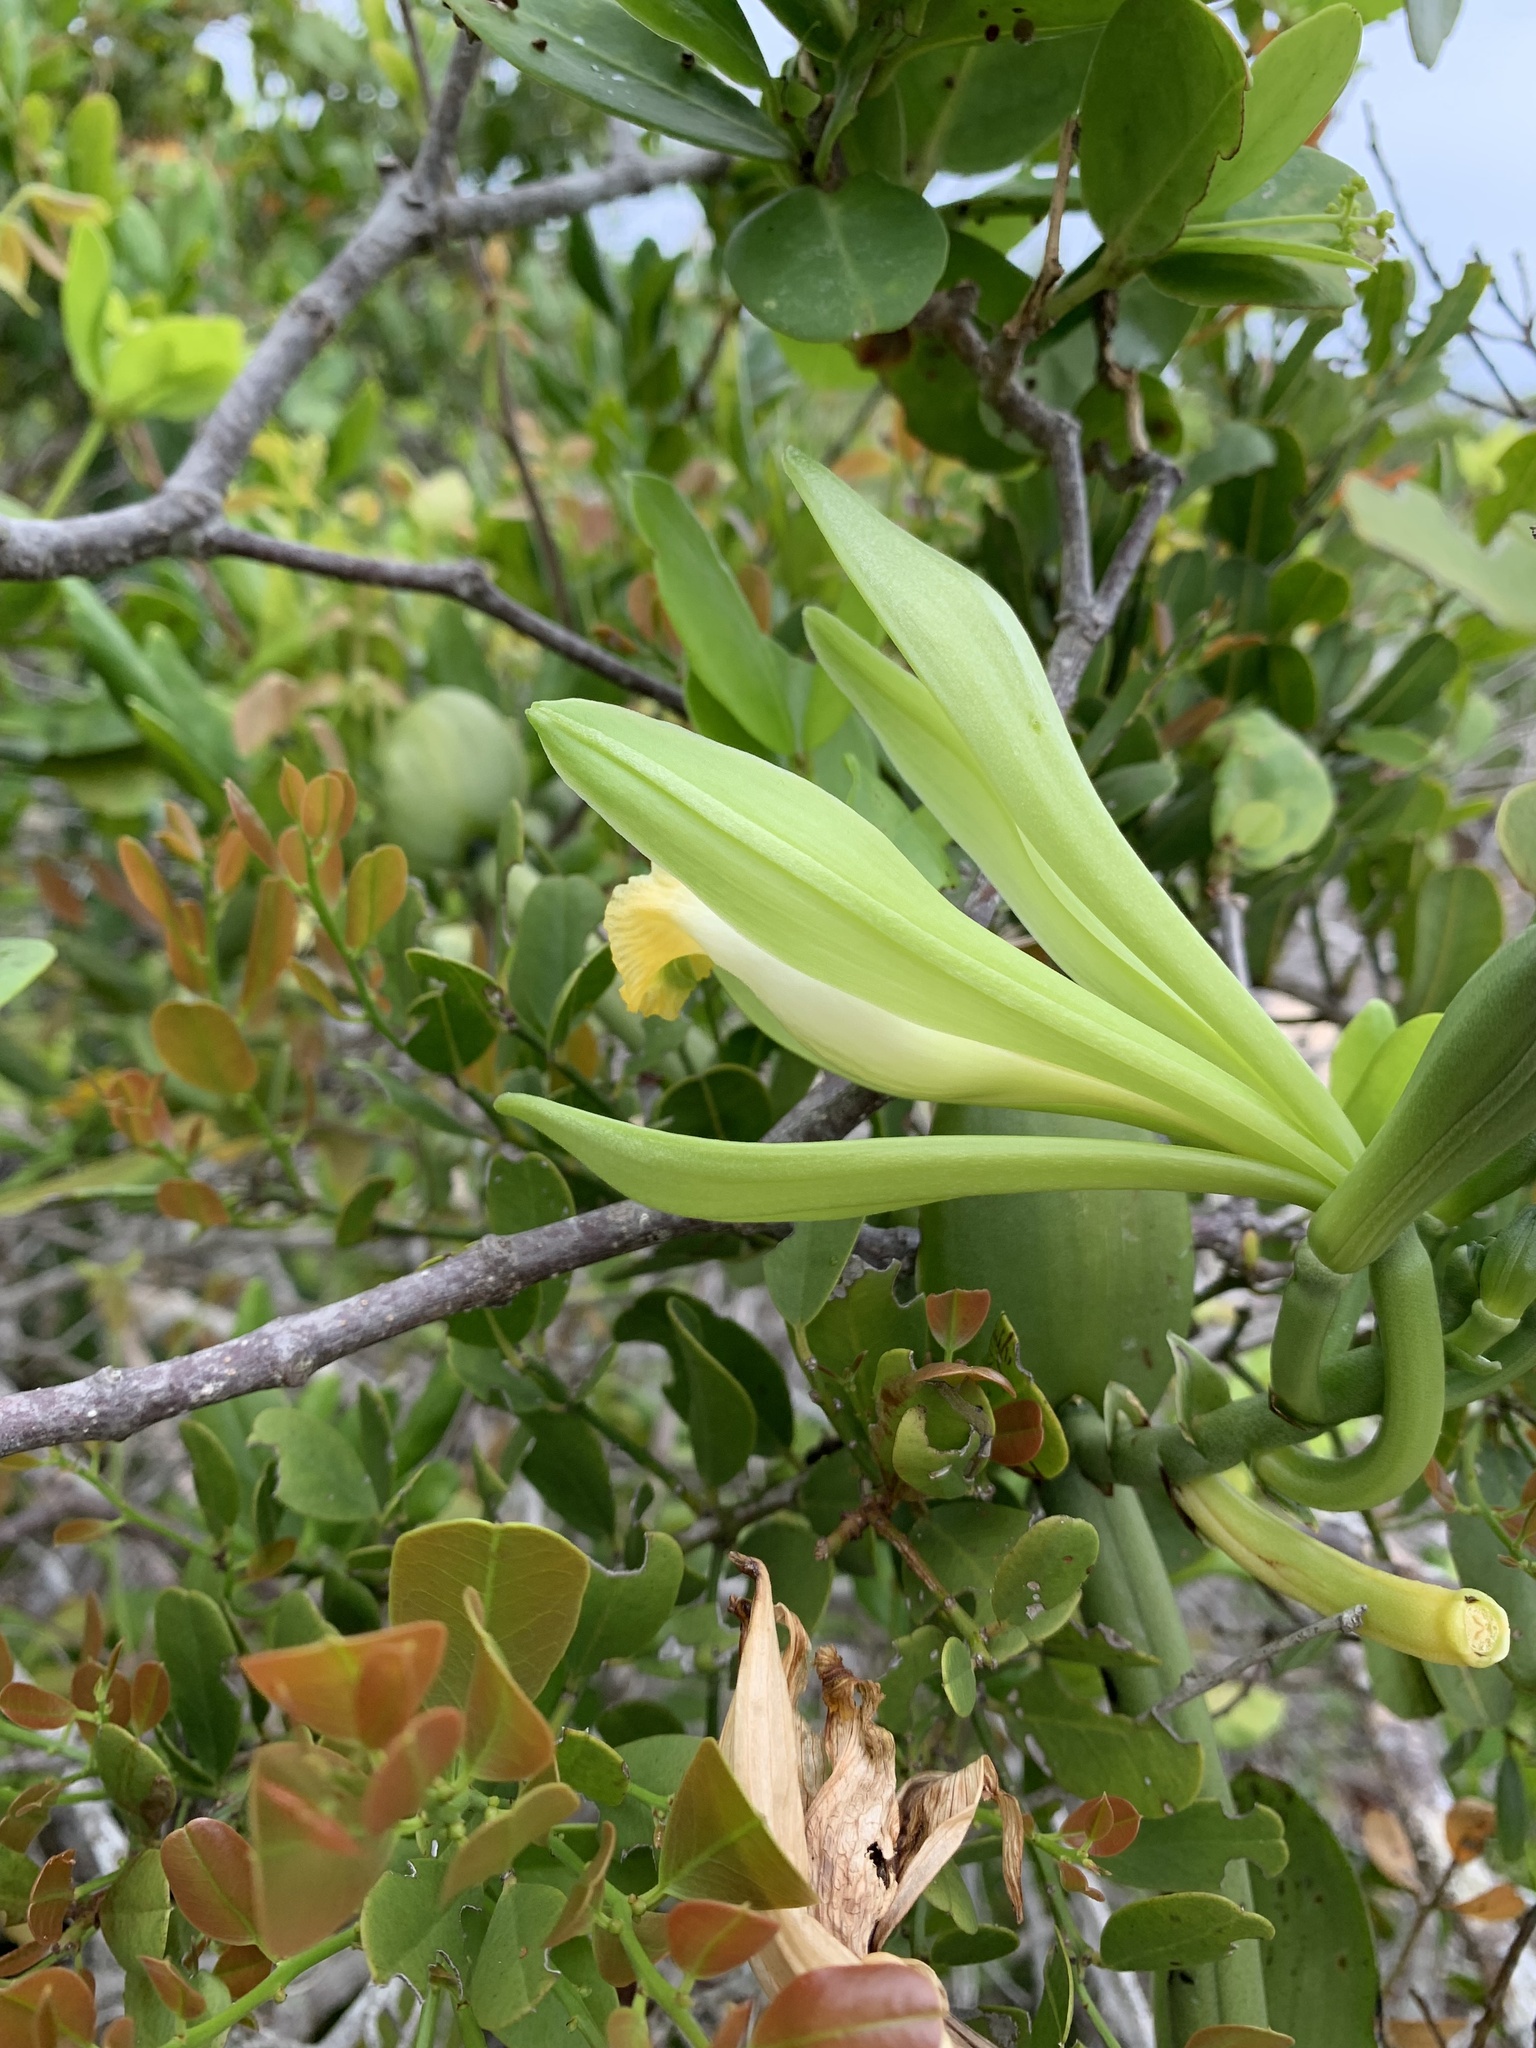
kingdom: Plantae
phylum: Tracheophyta
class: Liliopsida
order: Asparagales
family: Orchidaceae
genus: Vanilla
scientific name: Vanilla phaeantha
